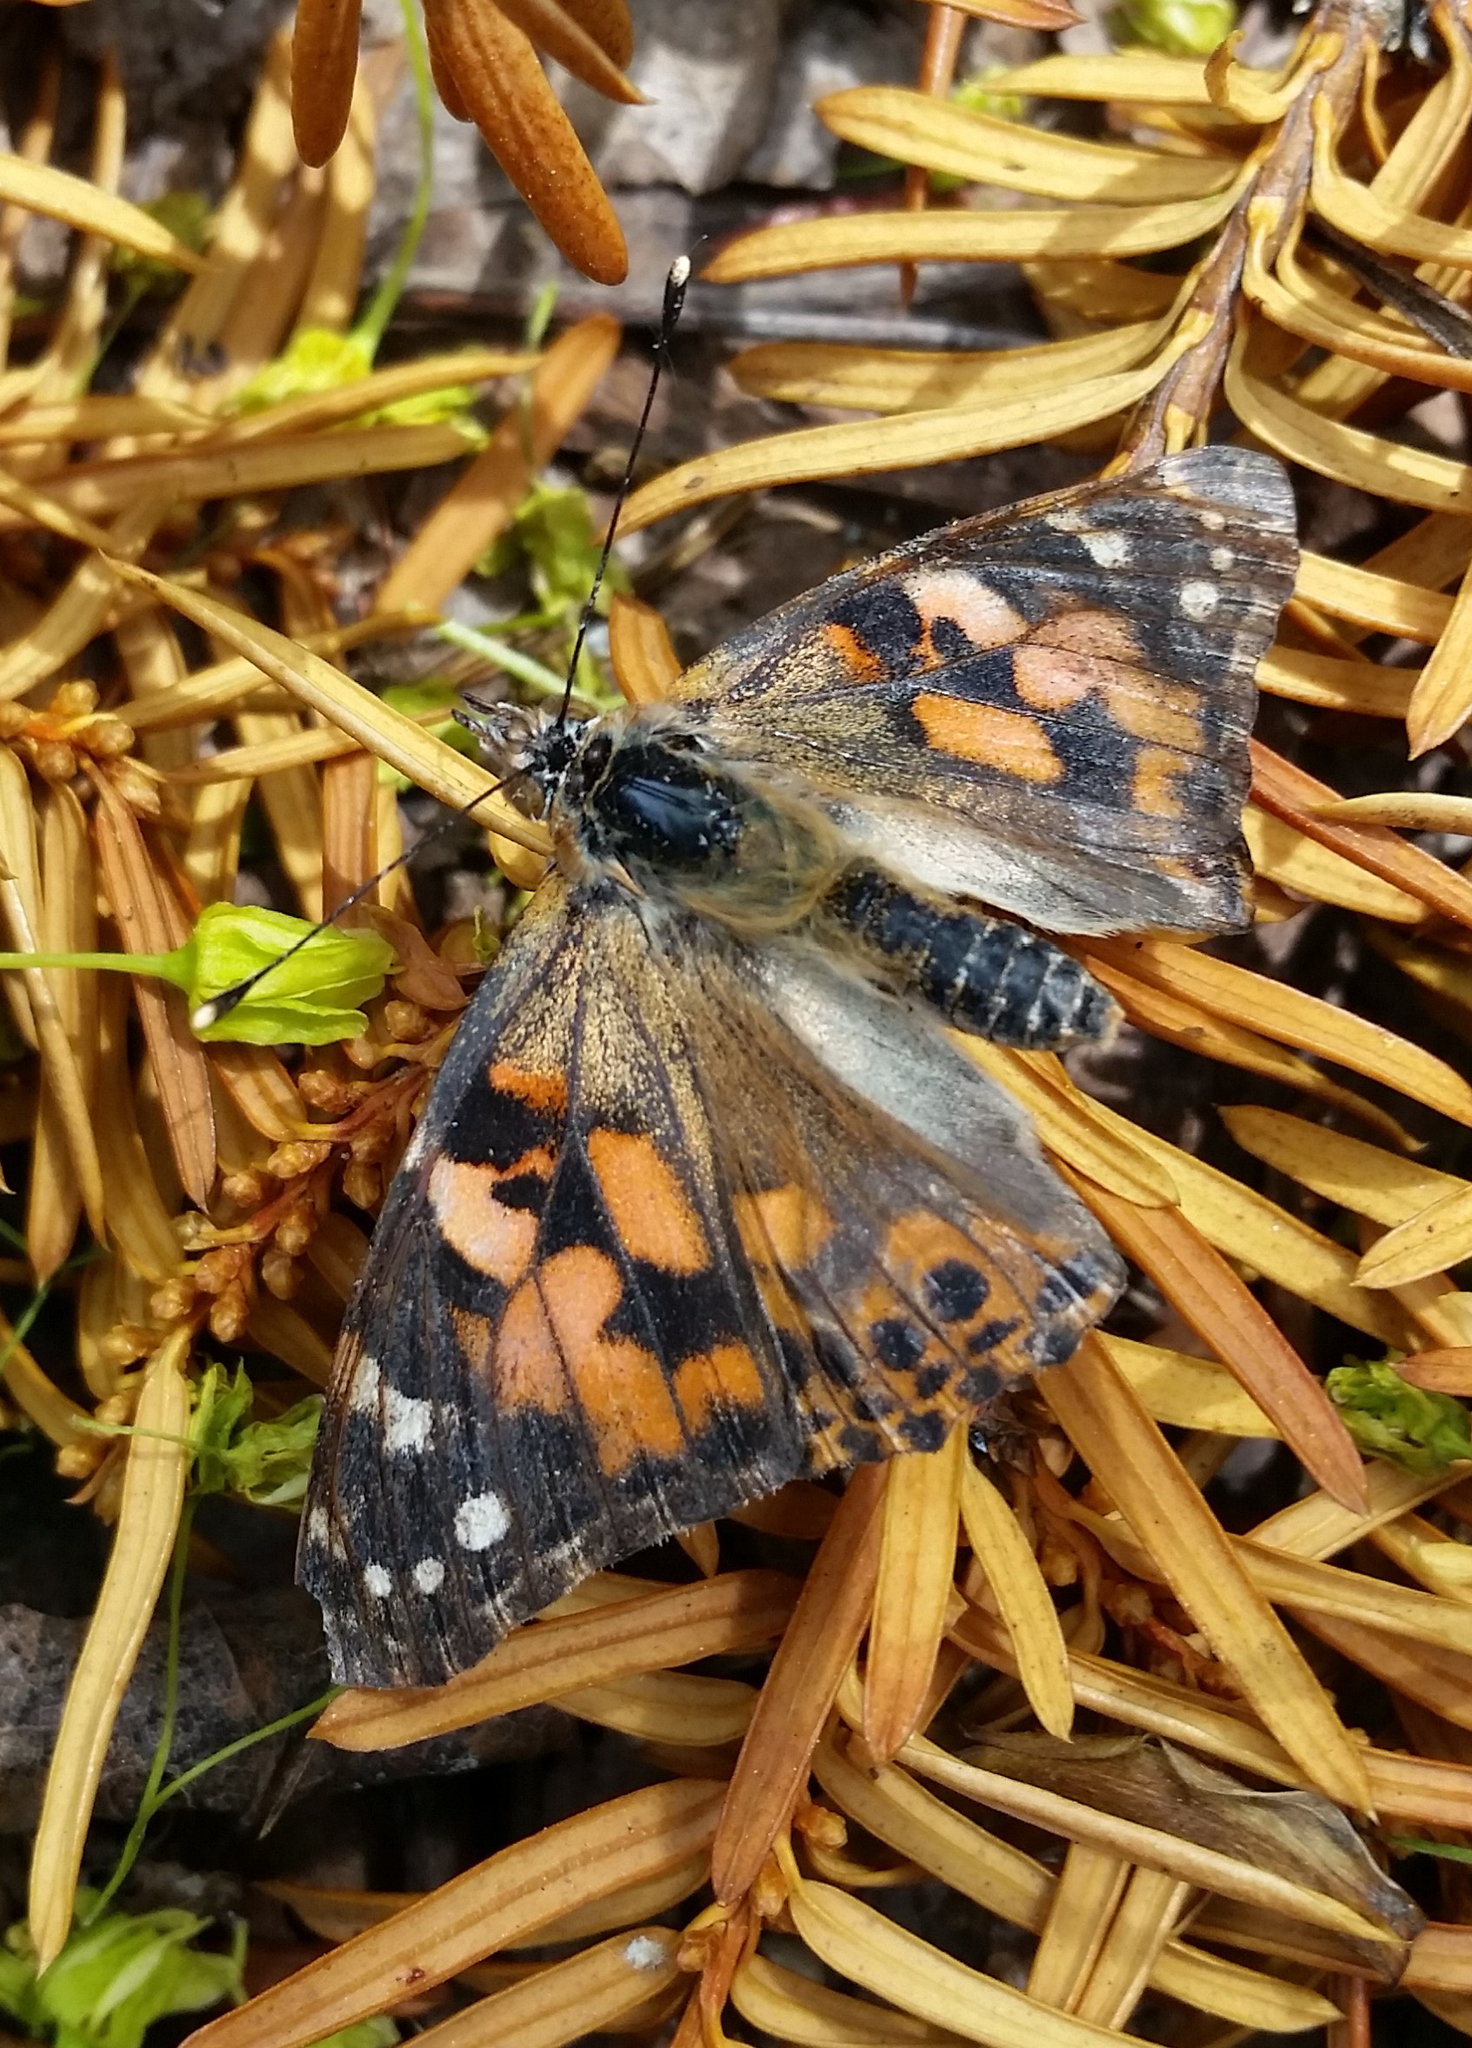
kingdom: Animalia
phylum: Arthropoda
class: Insecta
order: Lepidoptera
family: Nymphalidae
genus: Vanessa
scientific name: Vanessa cardui
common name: Painted lady
